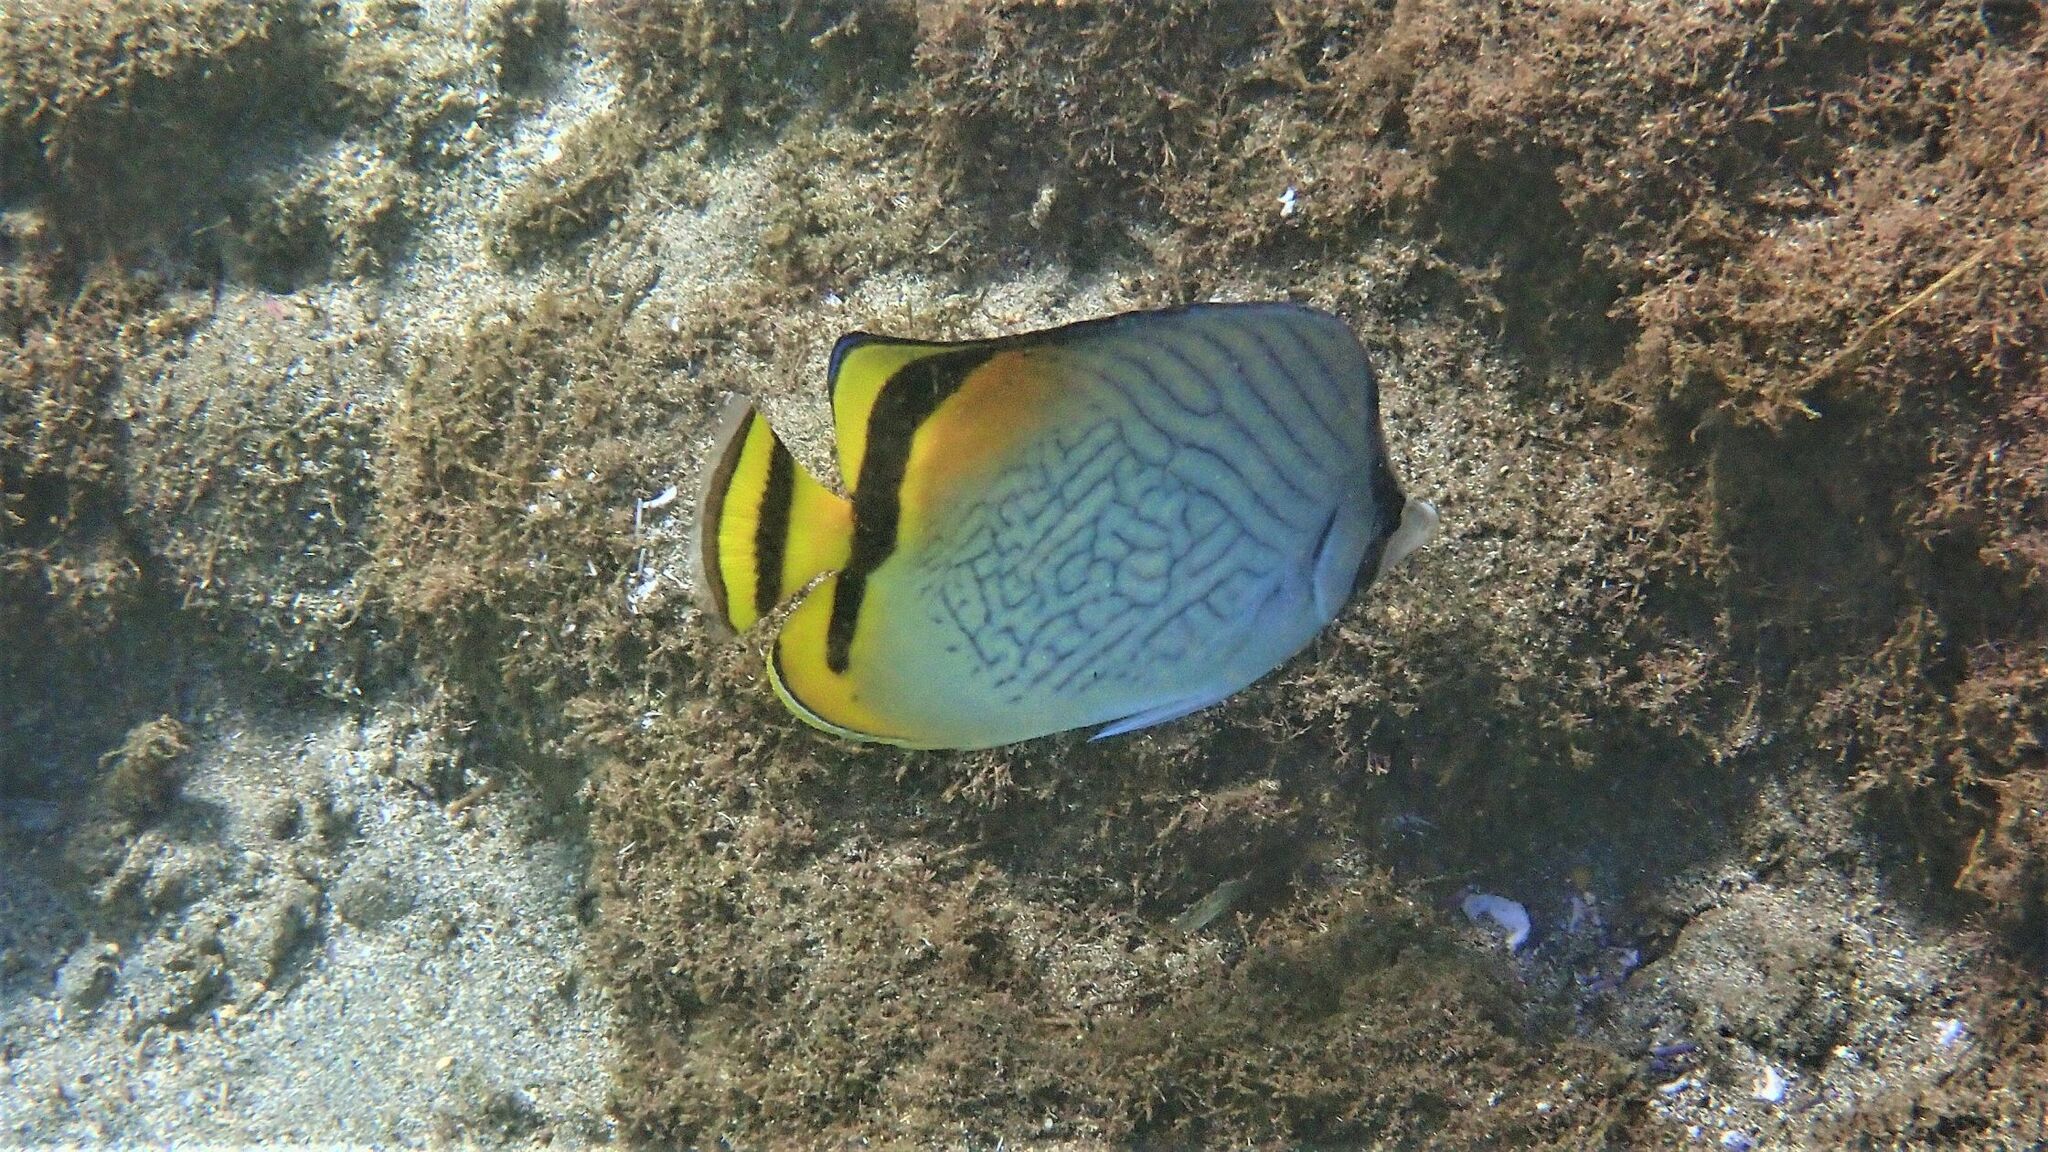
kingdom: Animalia
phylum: Chordata
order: Perciformes
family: Chaetodontidae
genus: Chaetodon
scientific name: Chaetodon vagabundus
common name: Vagabond butterflyfish
